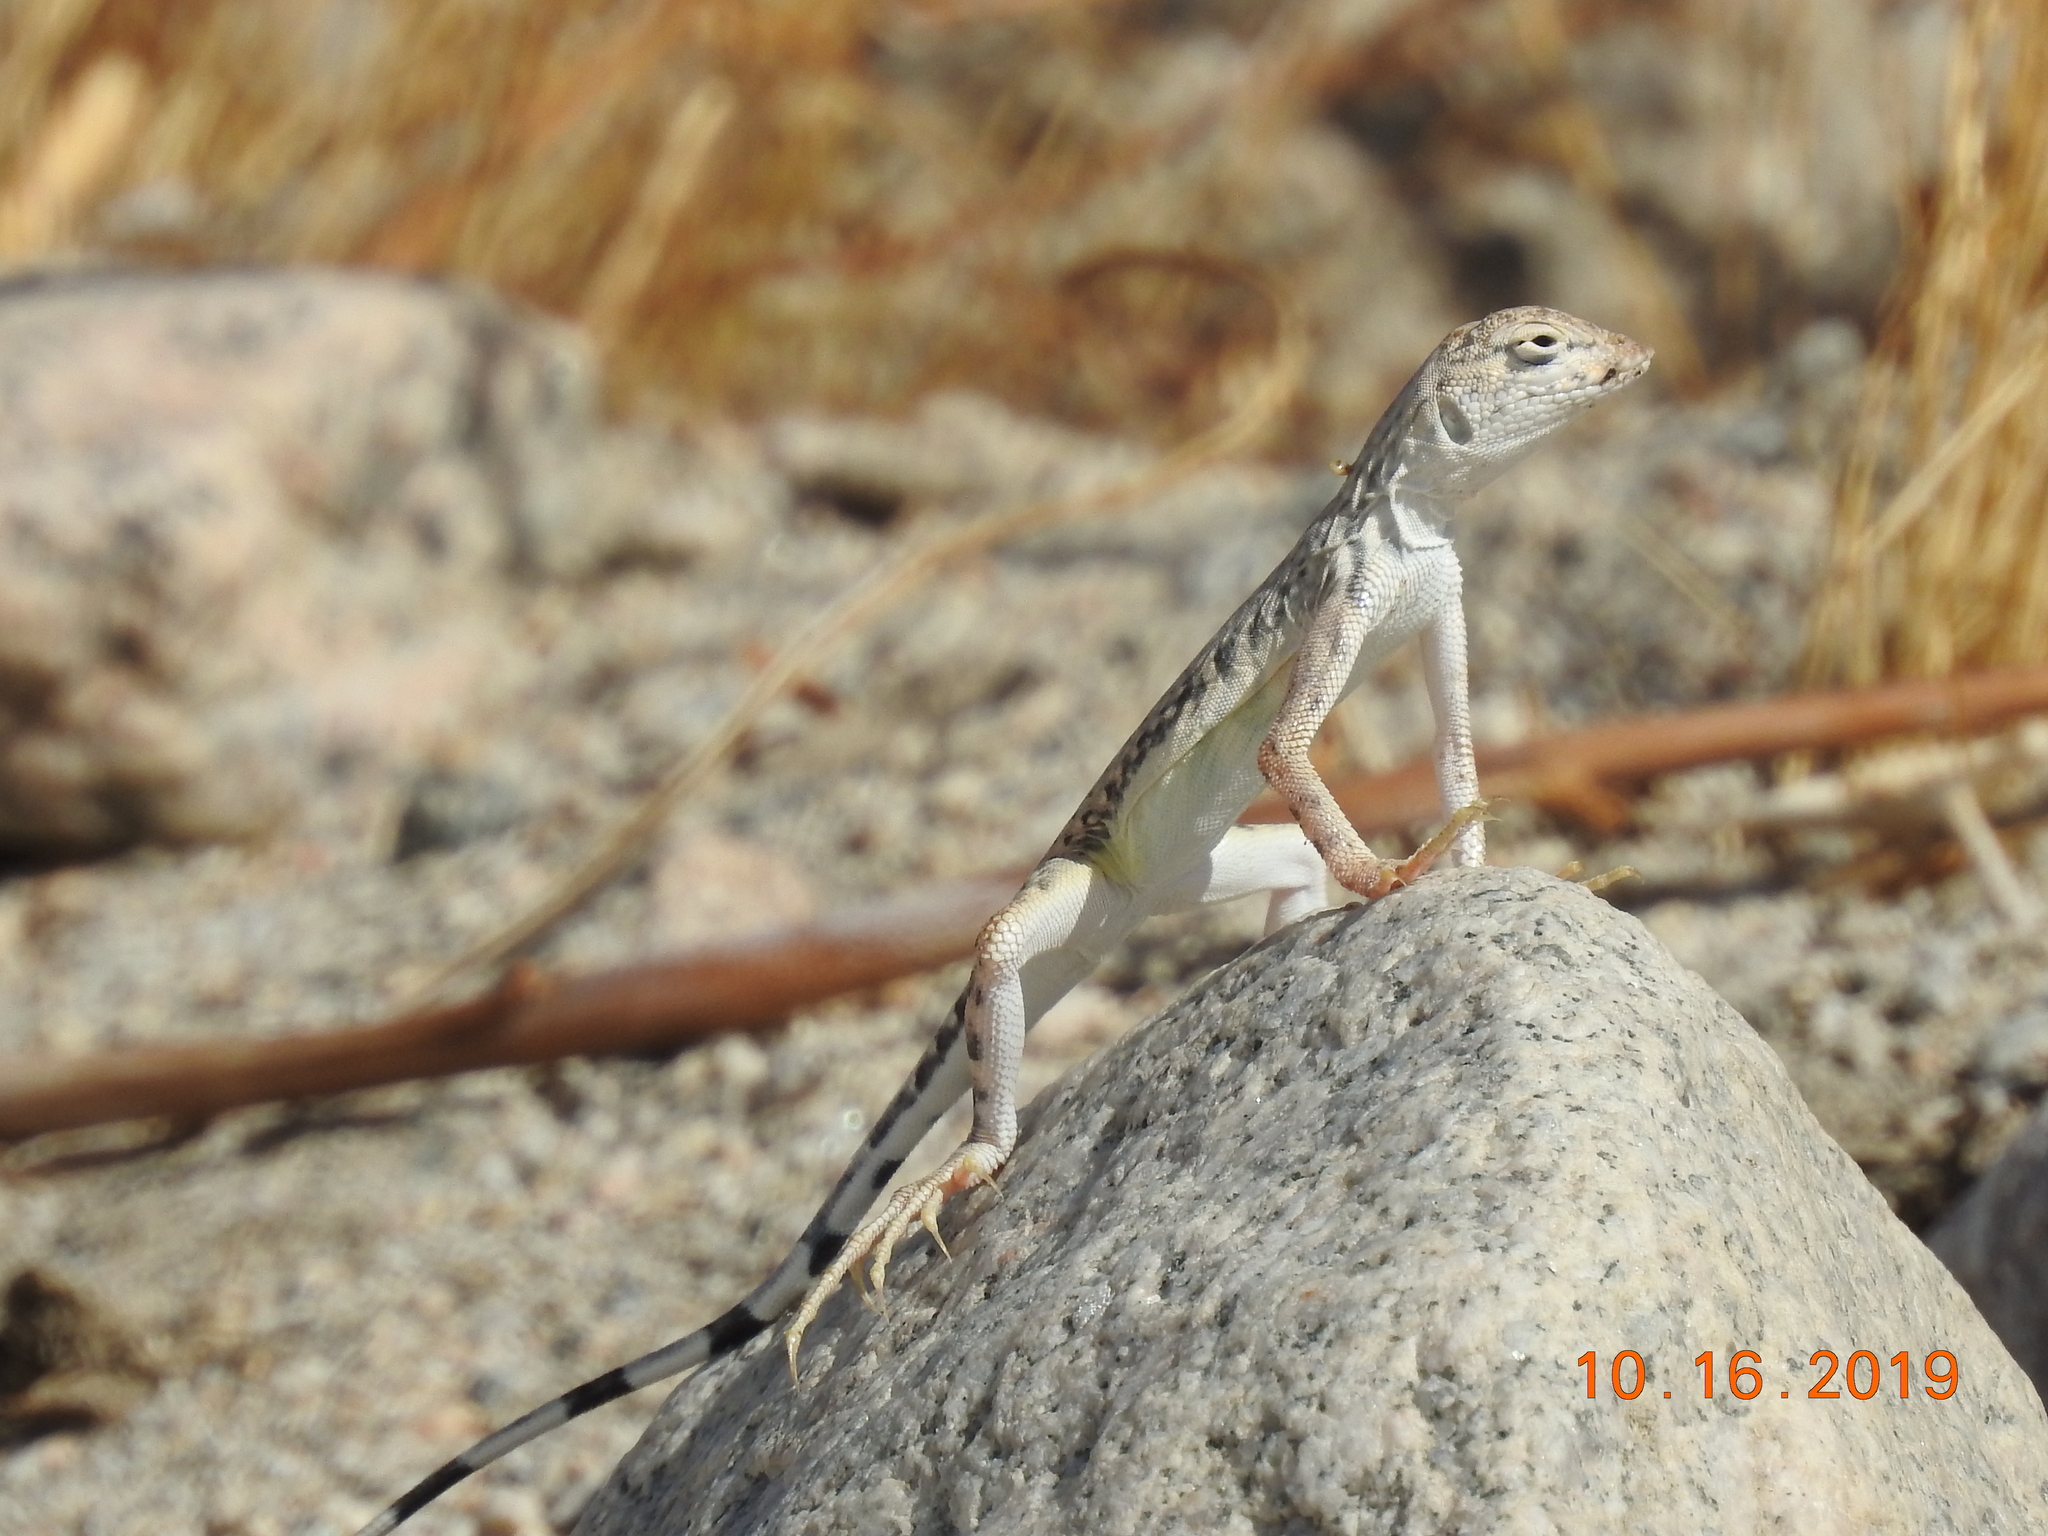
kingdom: Animalia
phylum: Chordata
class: Squamata
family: Phrynosomatidae
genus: Callisaurus
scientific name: Callisaurus draconoides
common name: Zebra-tailed lizard
